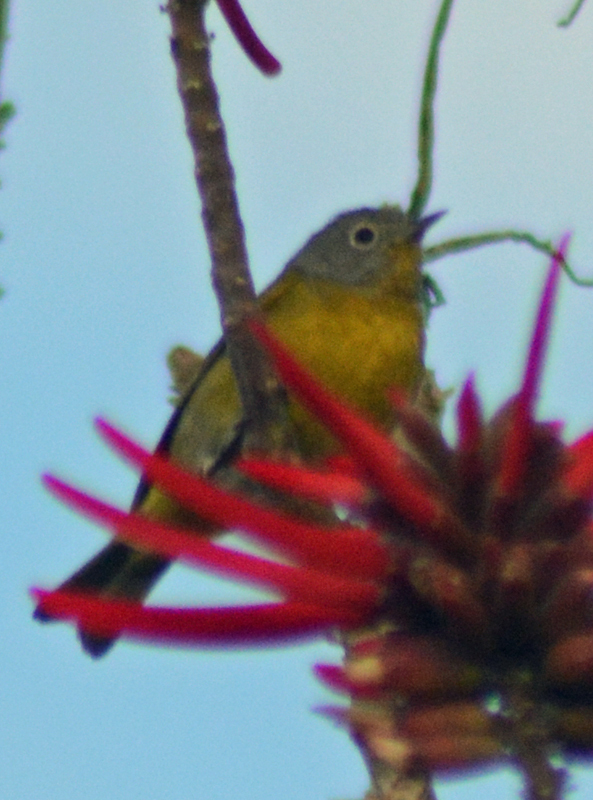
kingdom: Animalia
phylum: Chordata
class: Aves
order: Passeriformes
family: Parulidae
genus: Leiothlypis
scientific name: Leiothlypis ruficapilla
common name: Nashville warbler
